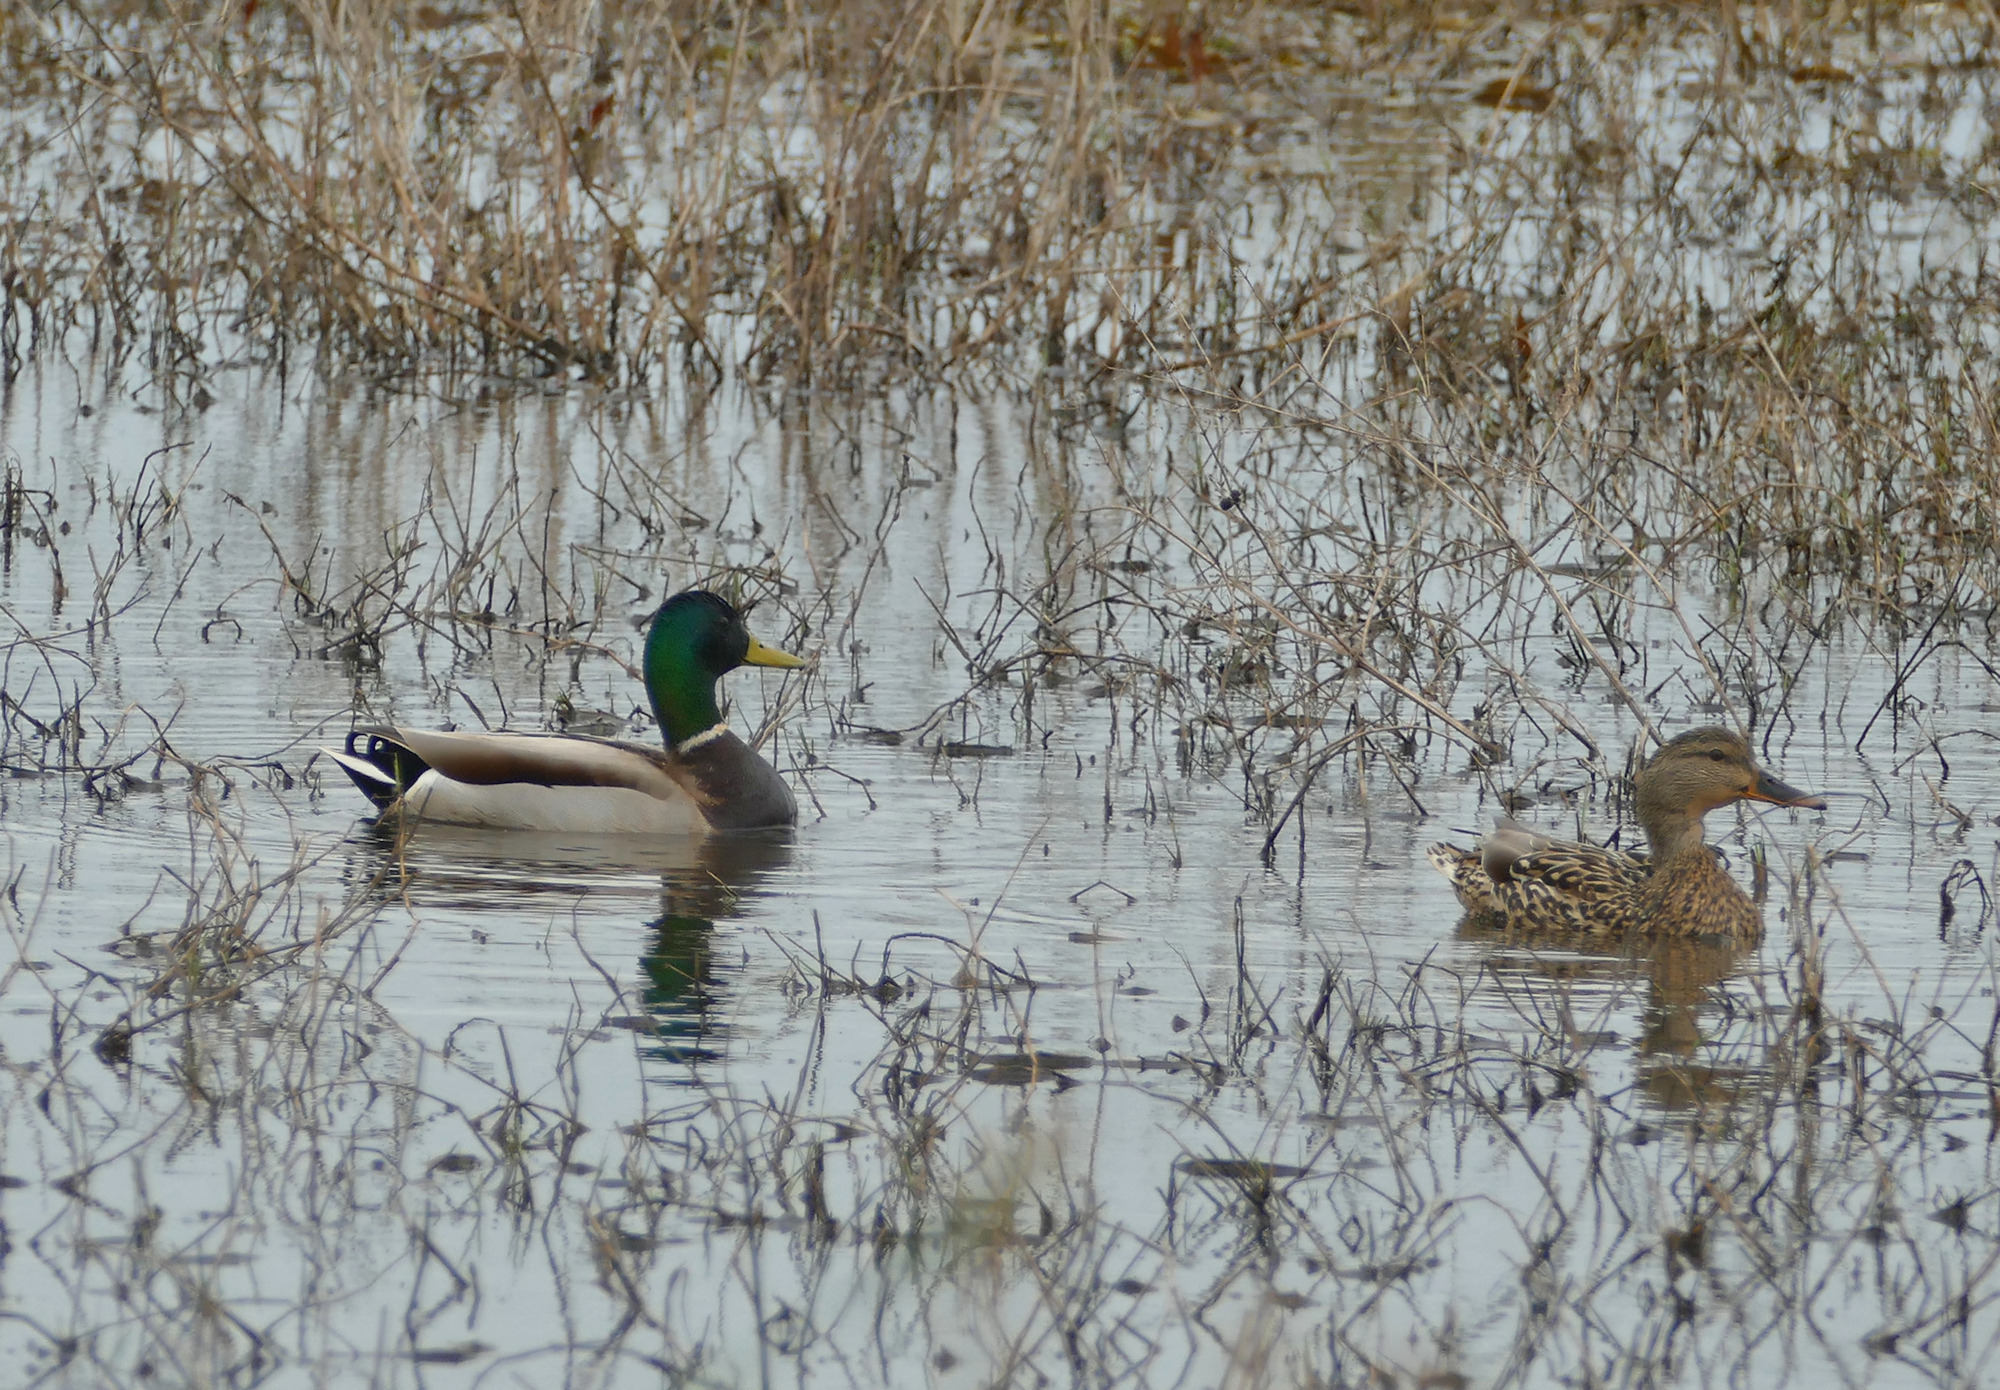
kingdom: Animalia
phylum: Chordata
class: Aves
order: Anseriformes
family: Anatidae
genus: Anas
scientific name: Anas platyrhynchos
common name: Mallard
